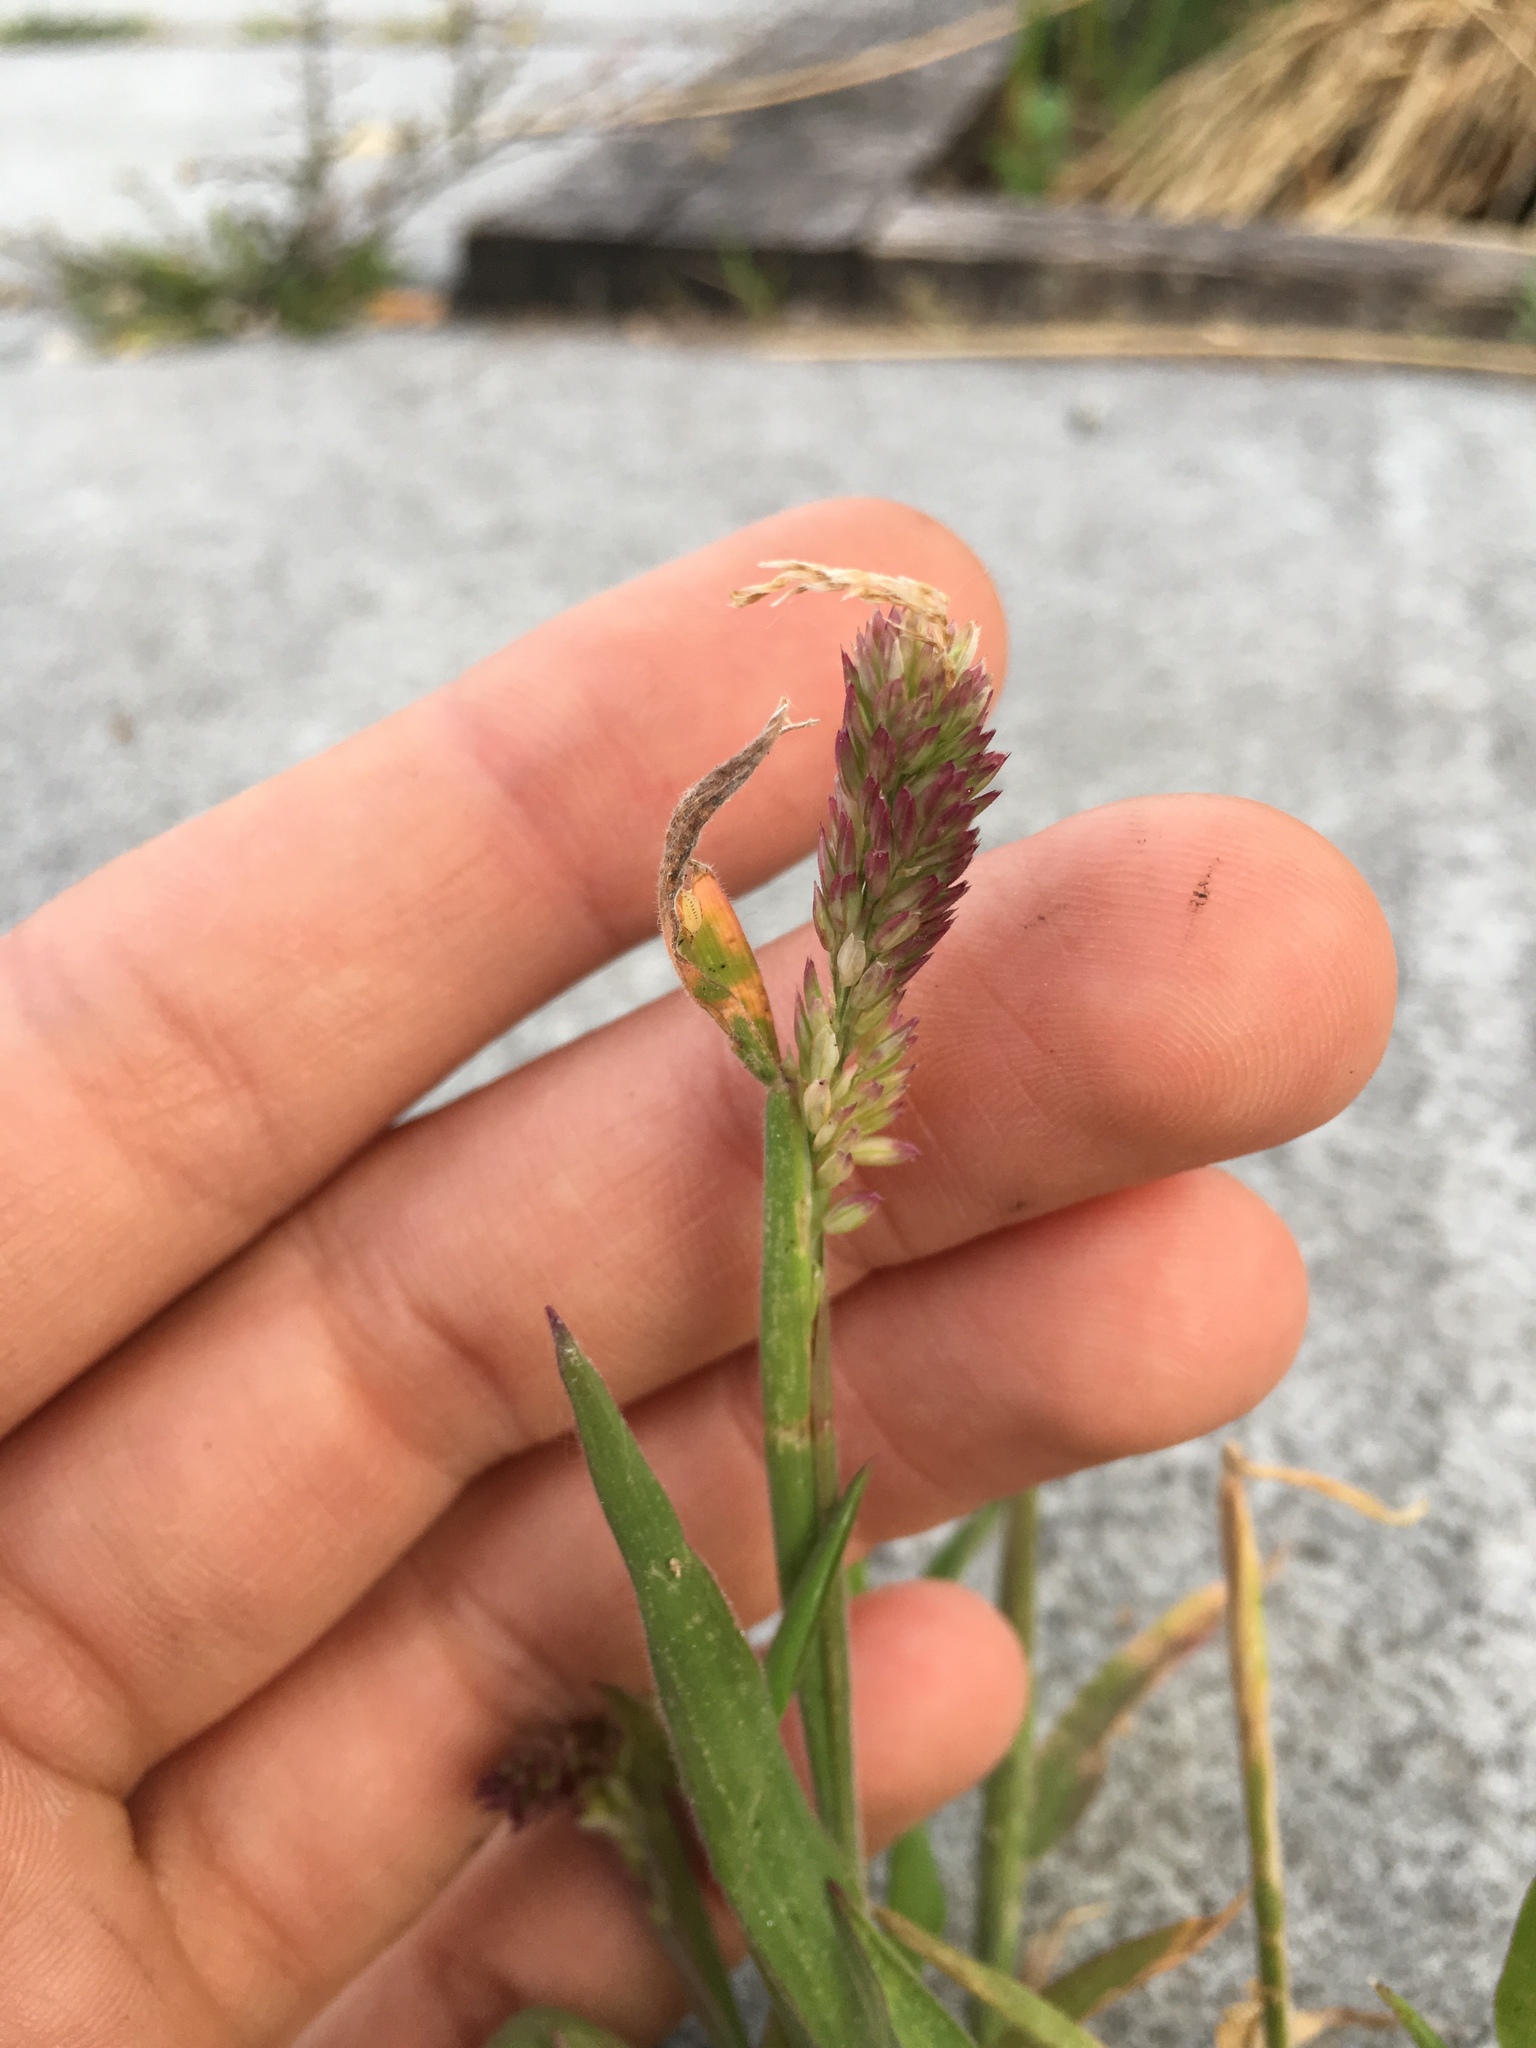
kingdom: Plantae
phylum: Tracheophyta
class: Liliopsida
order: Poales
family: Poaceae
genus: Holcus
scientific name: Holcus lanatus
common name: Yorkshire-fog
